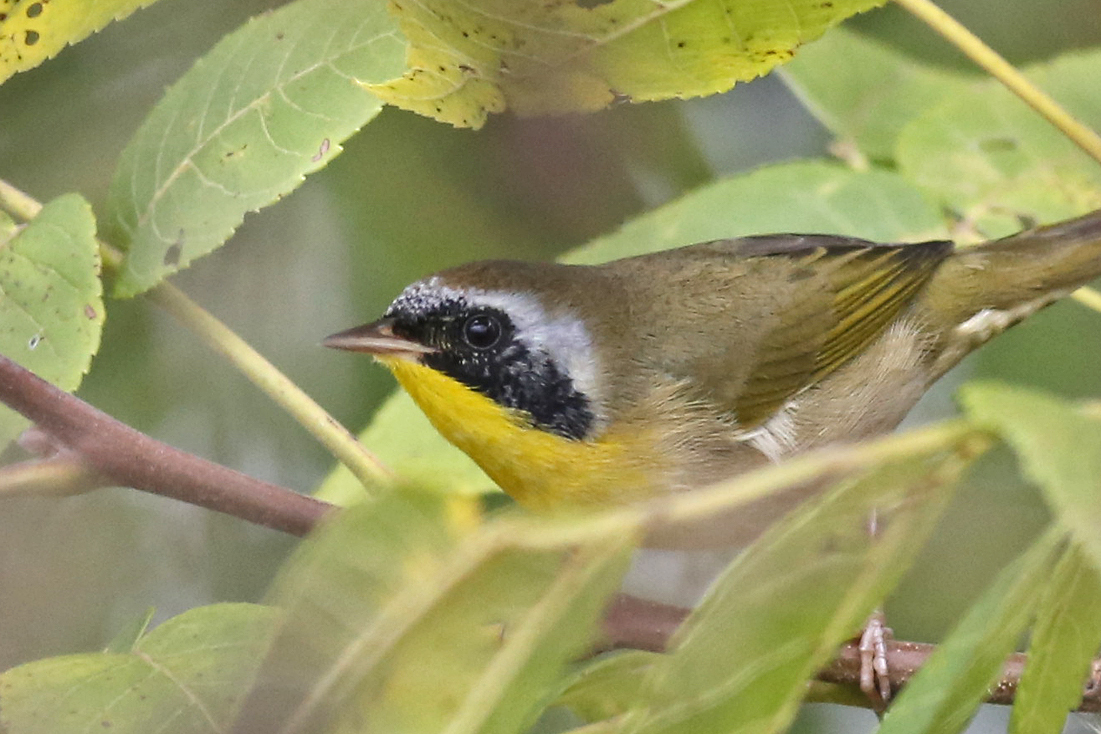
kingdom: Animalia
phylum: Chordata
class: Aves
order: Passeriformes
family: Parulidae
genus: Geothlypis
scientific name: Geothlypis trichas
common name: Common yellowthroat
